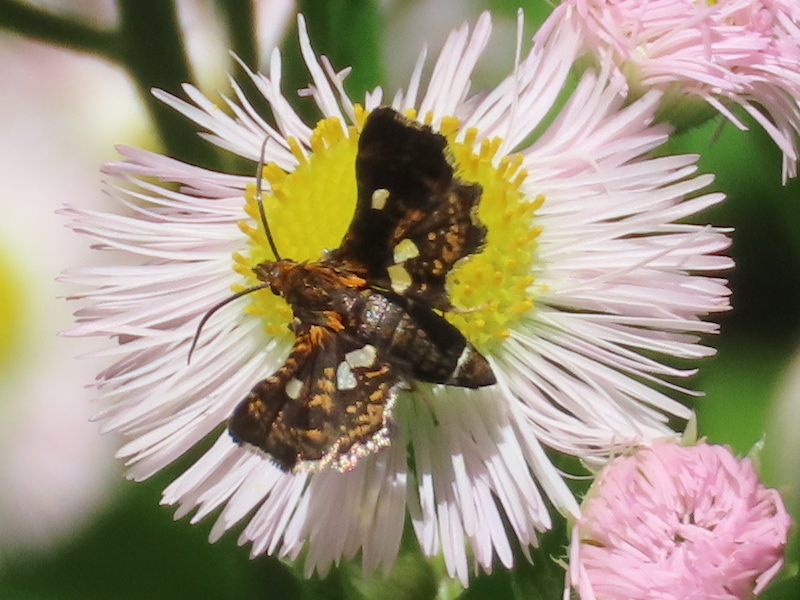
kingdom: Animalia
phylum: Arthropoda
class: Insecta
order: Lepidoptera
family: Thyrididae
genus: Thyris
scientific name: Thyris maculata
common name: Spotted thyris moth
